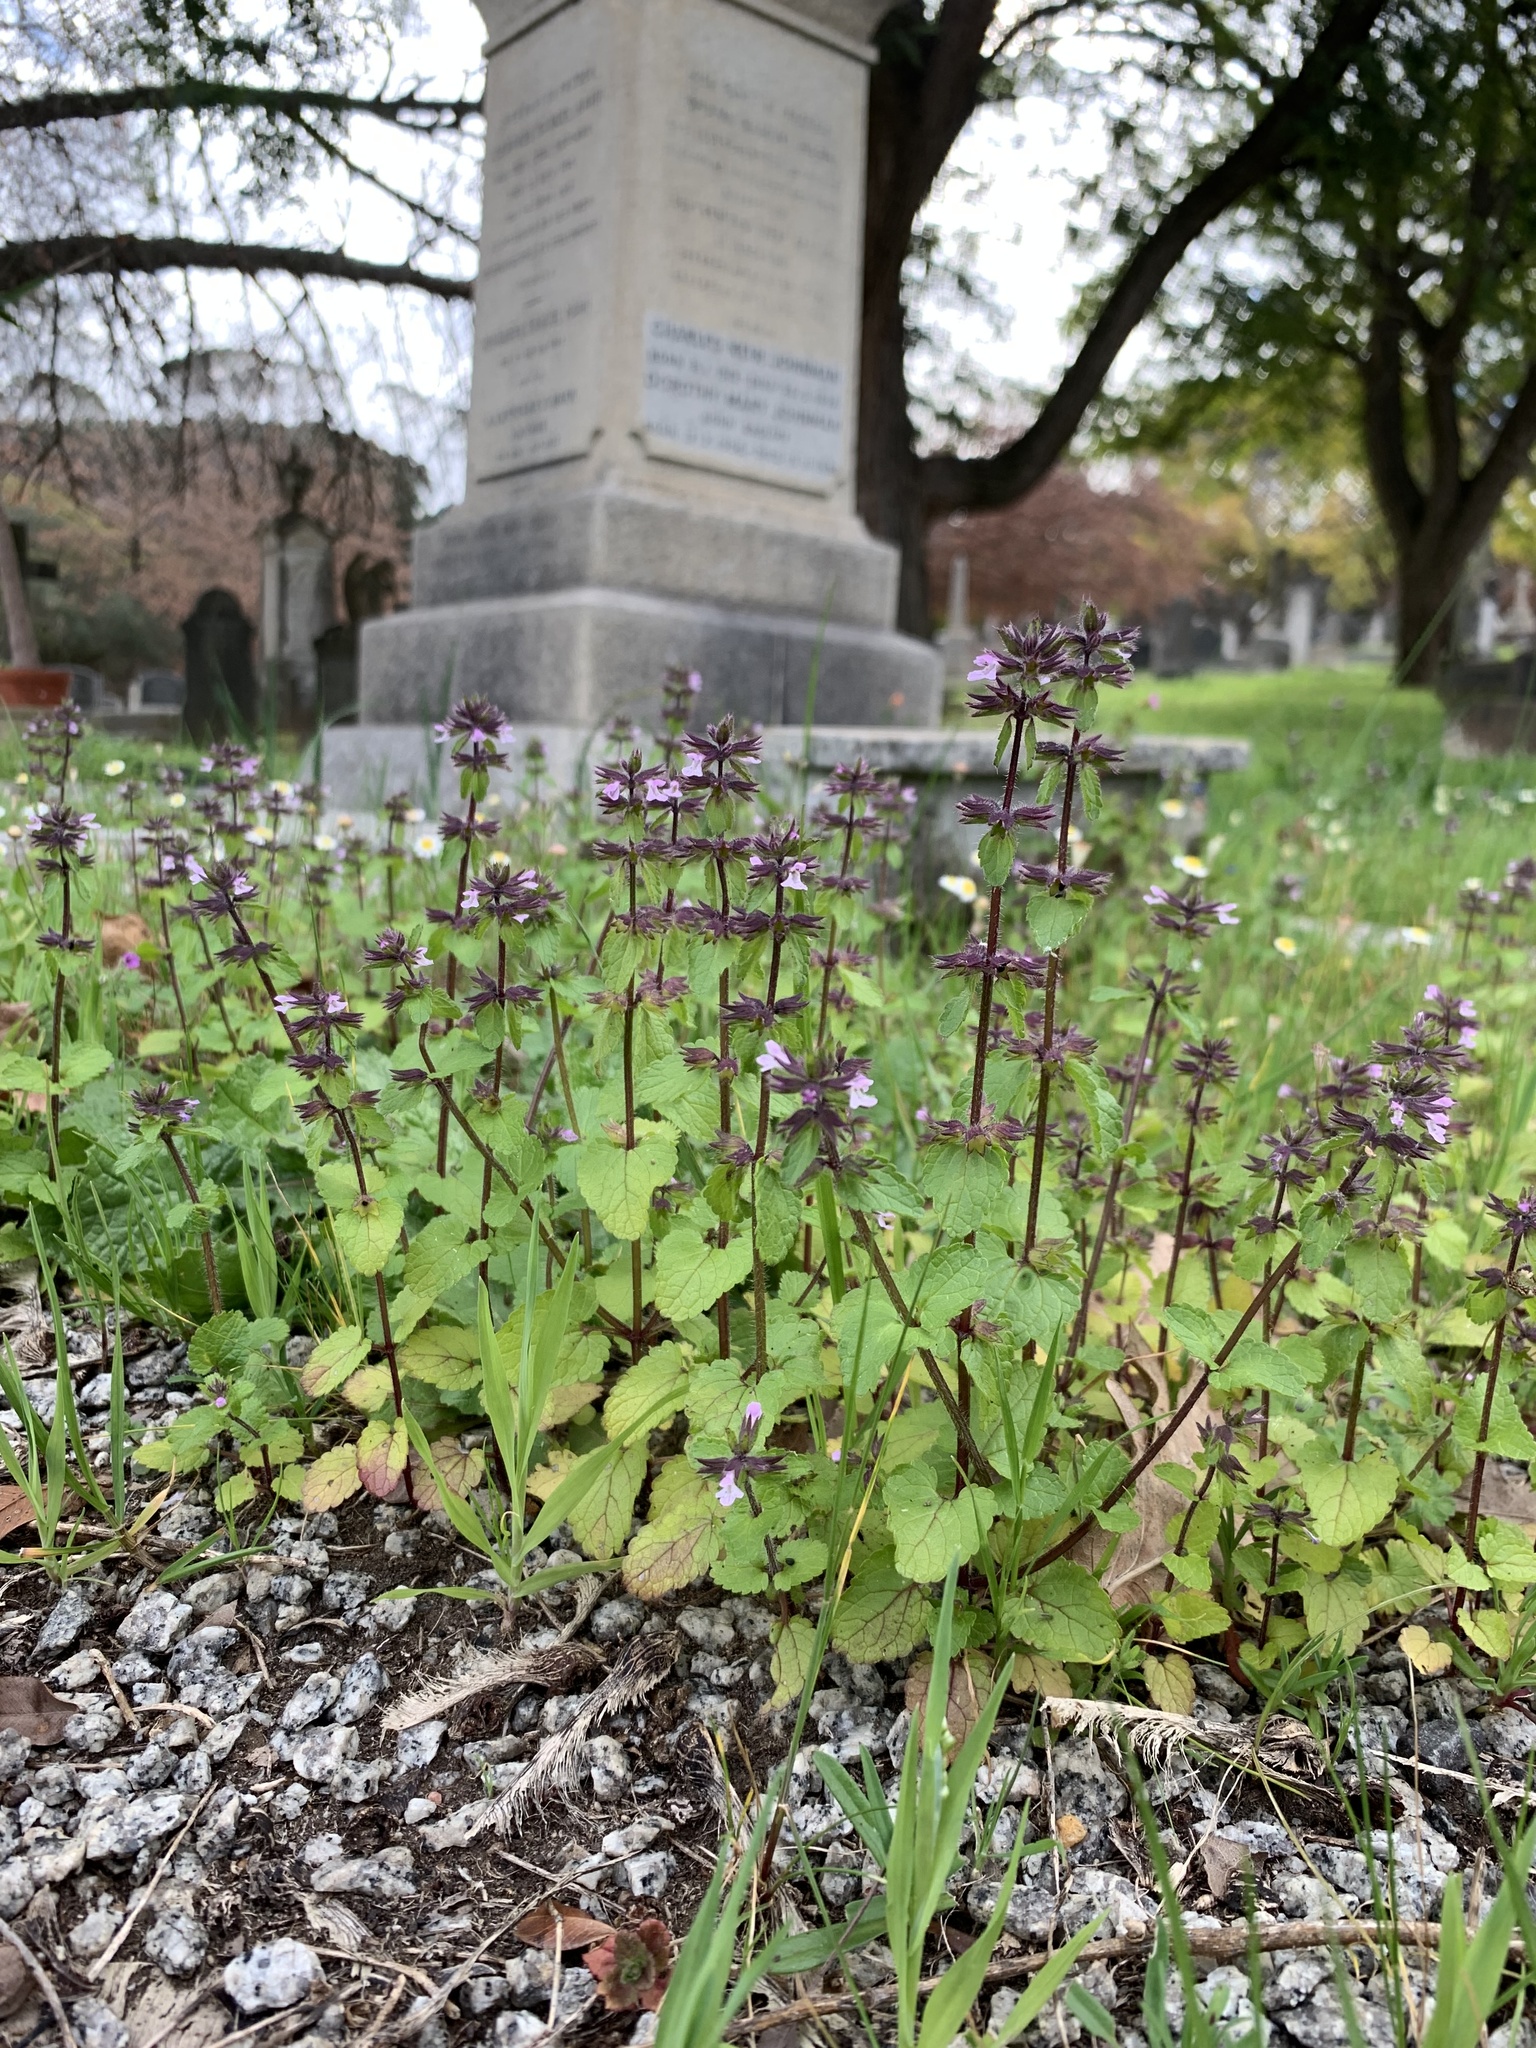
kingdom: Plantae
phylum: Tracheophyta
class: Magnoliopsida
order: Lamiales
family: Lamiaceae
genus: Stachys
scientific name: Stachys arvensis
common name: Field woundwort
